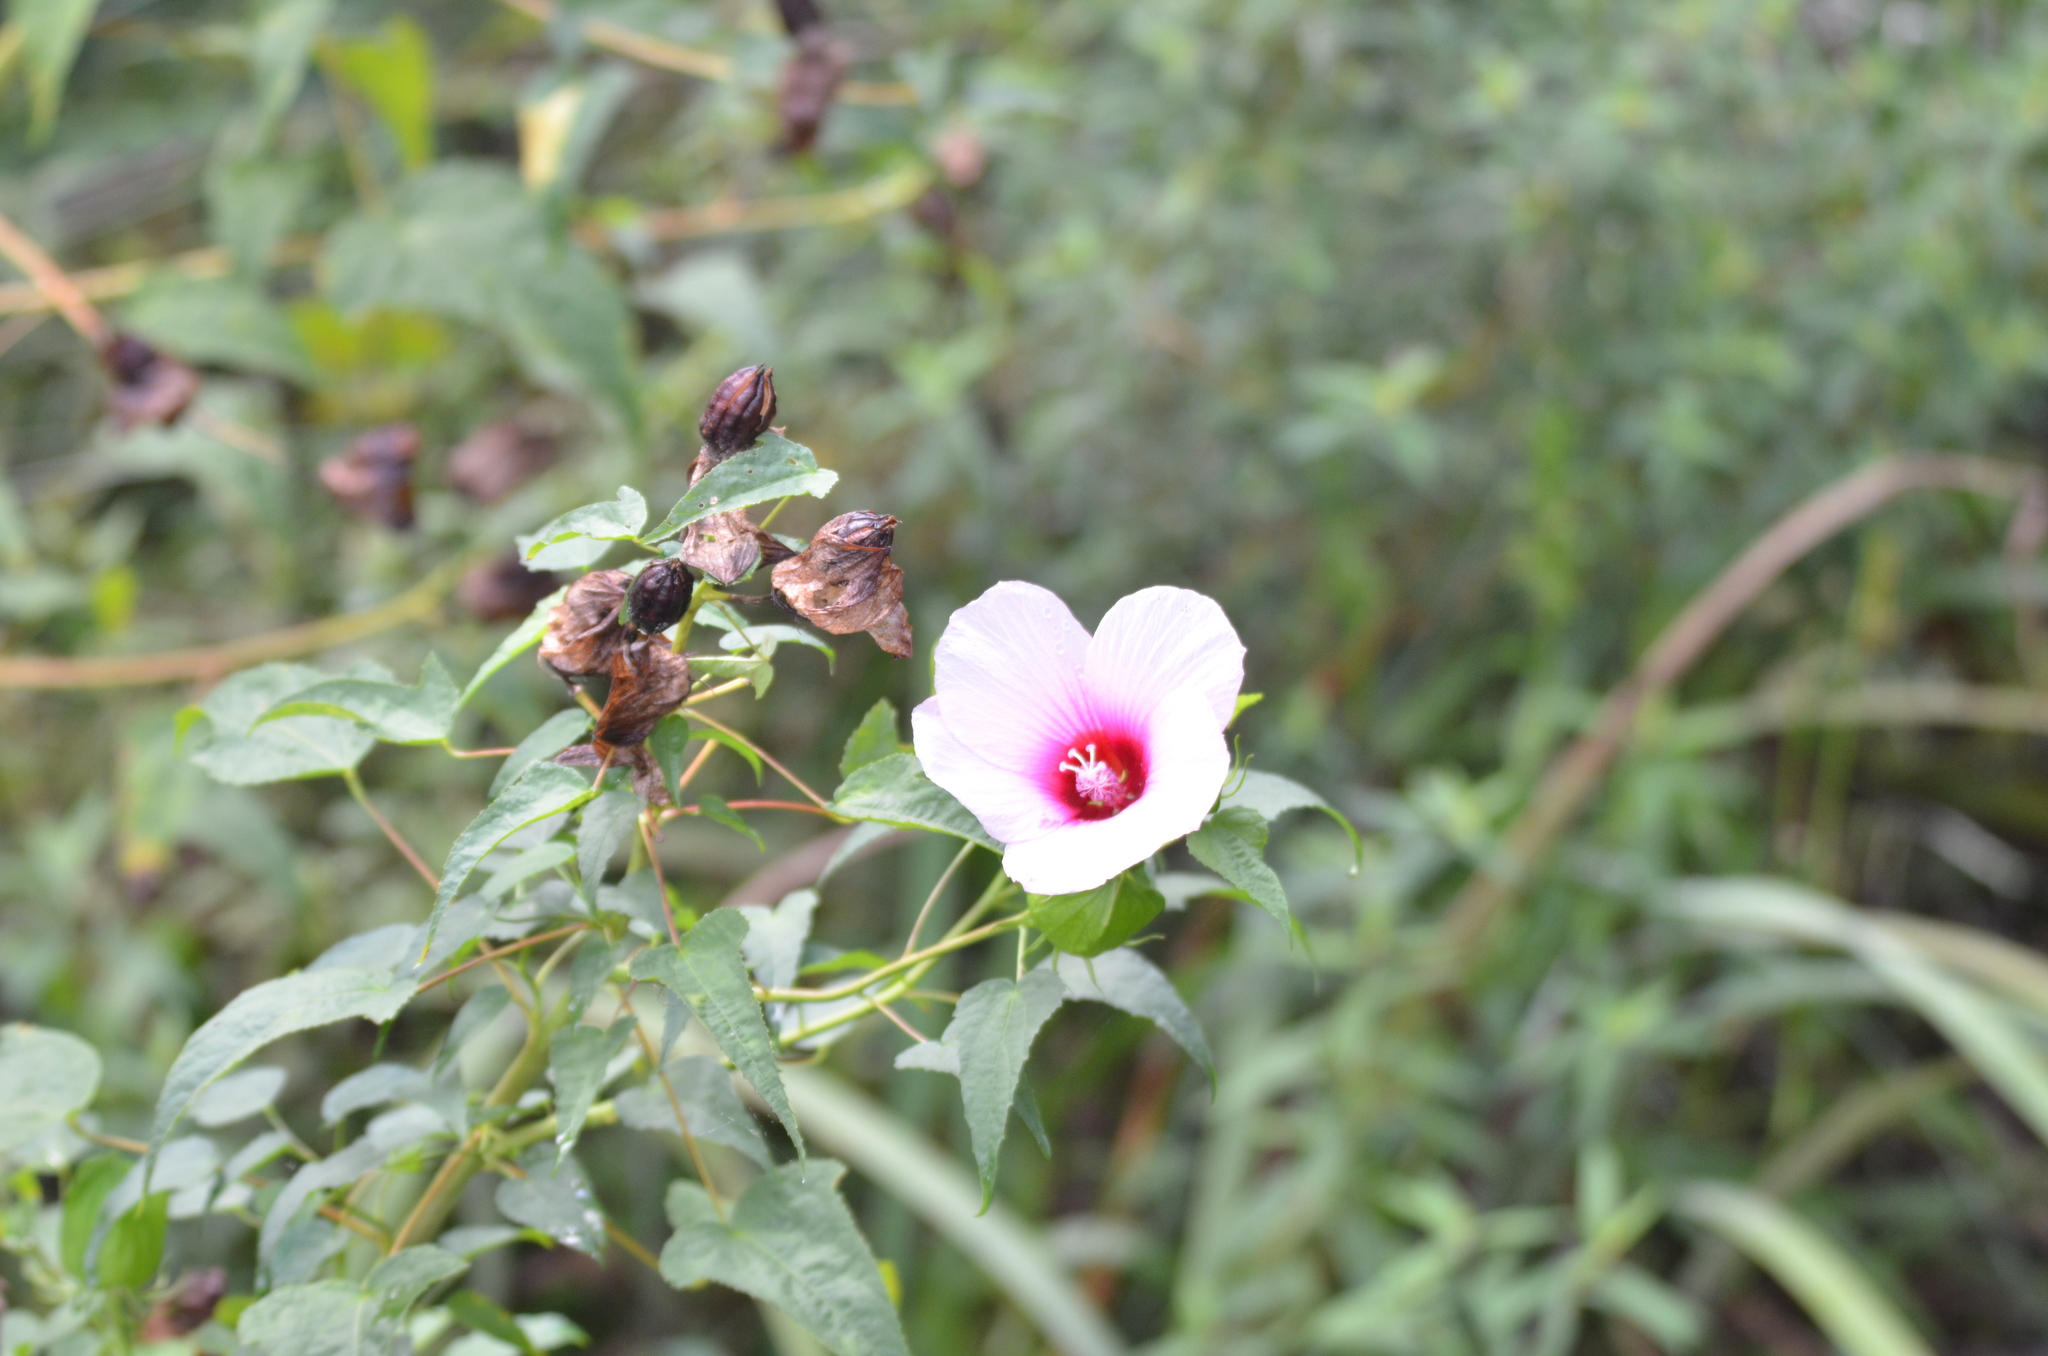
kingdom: Plantae
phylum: Tracheophyta
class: Magnoliopsida
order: Malvales
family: Malvaceae
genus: Hibiscus
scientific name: Hibiscus laevis
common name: Scarlet rose-mallow
